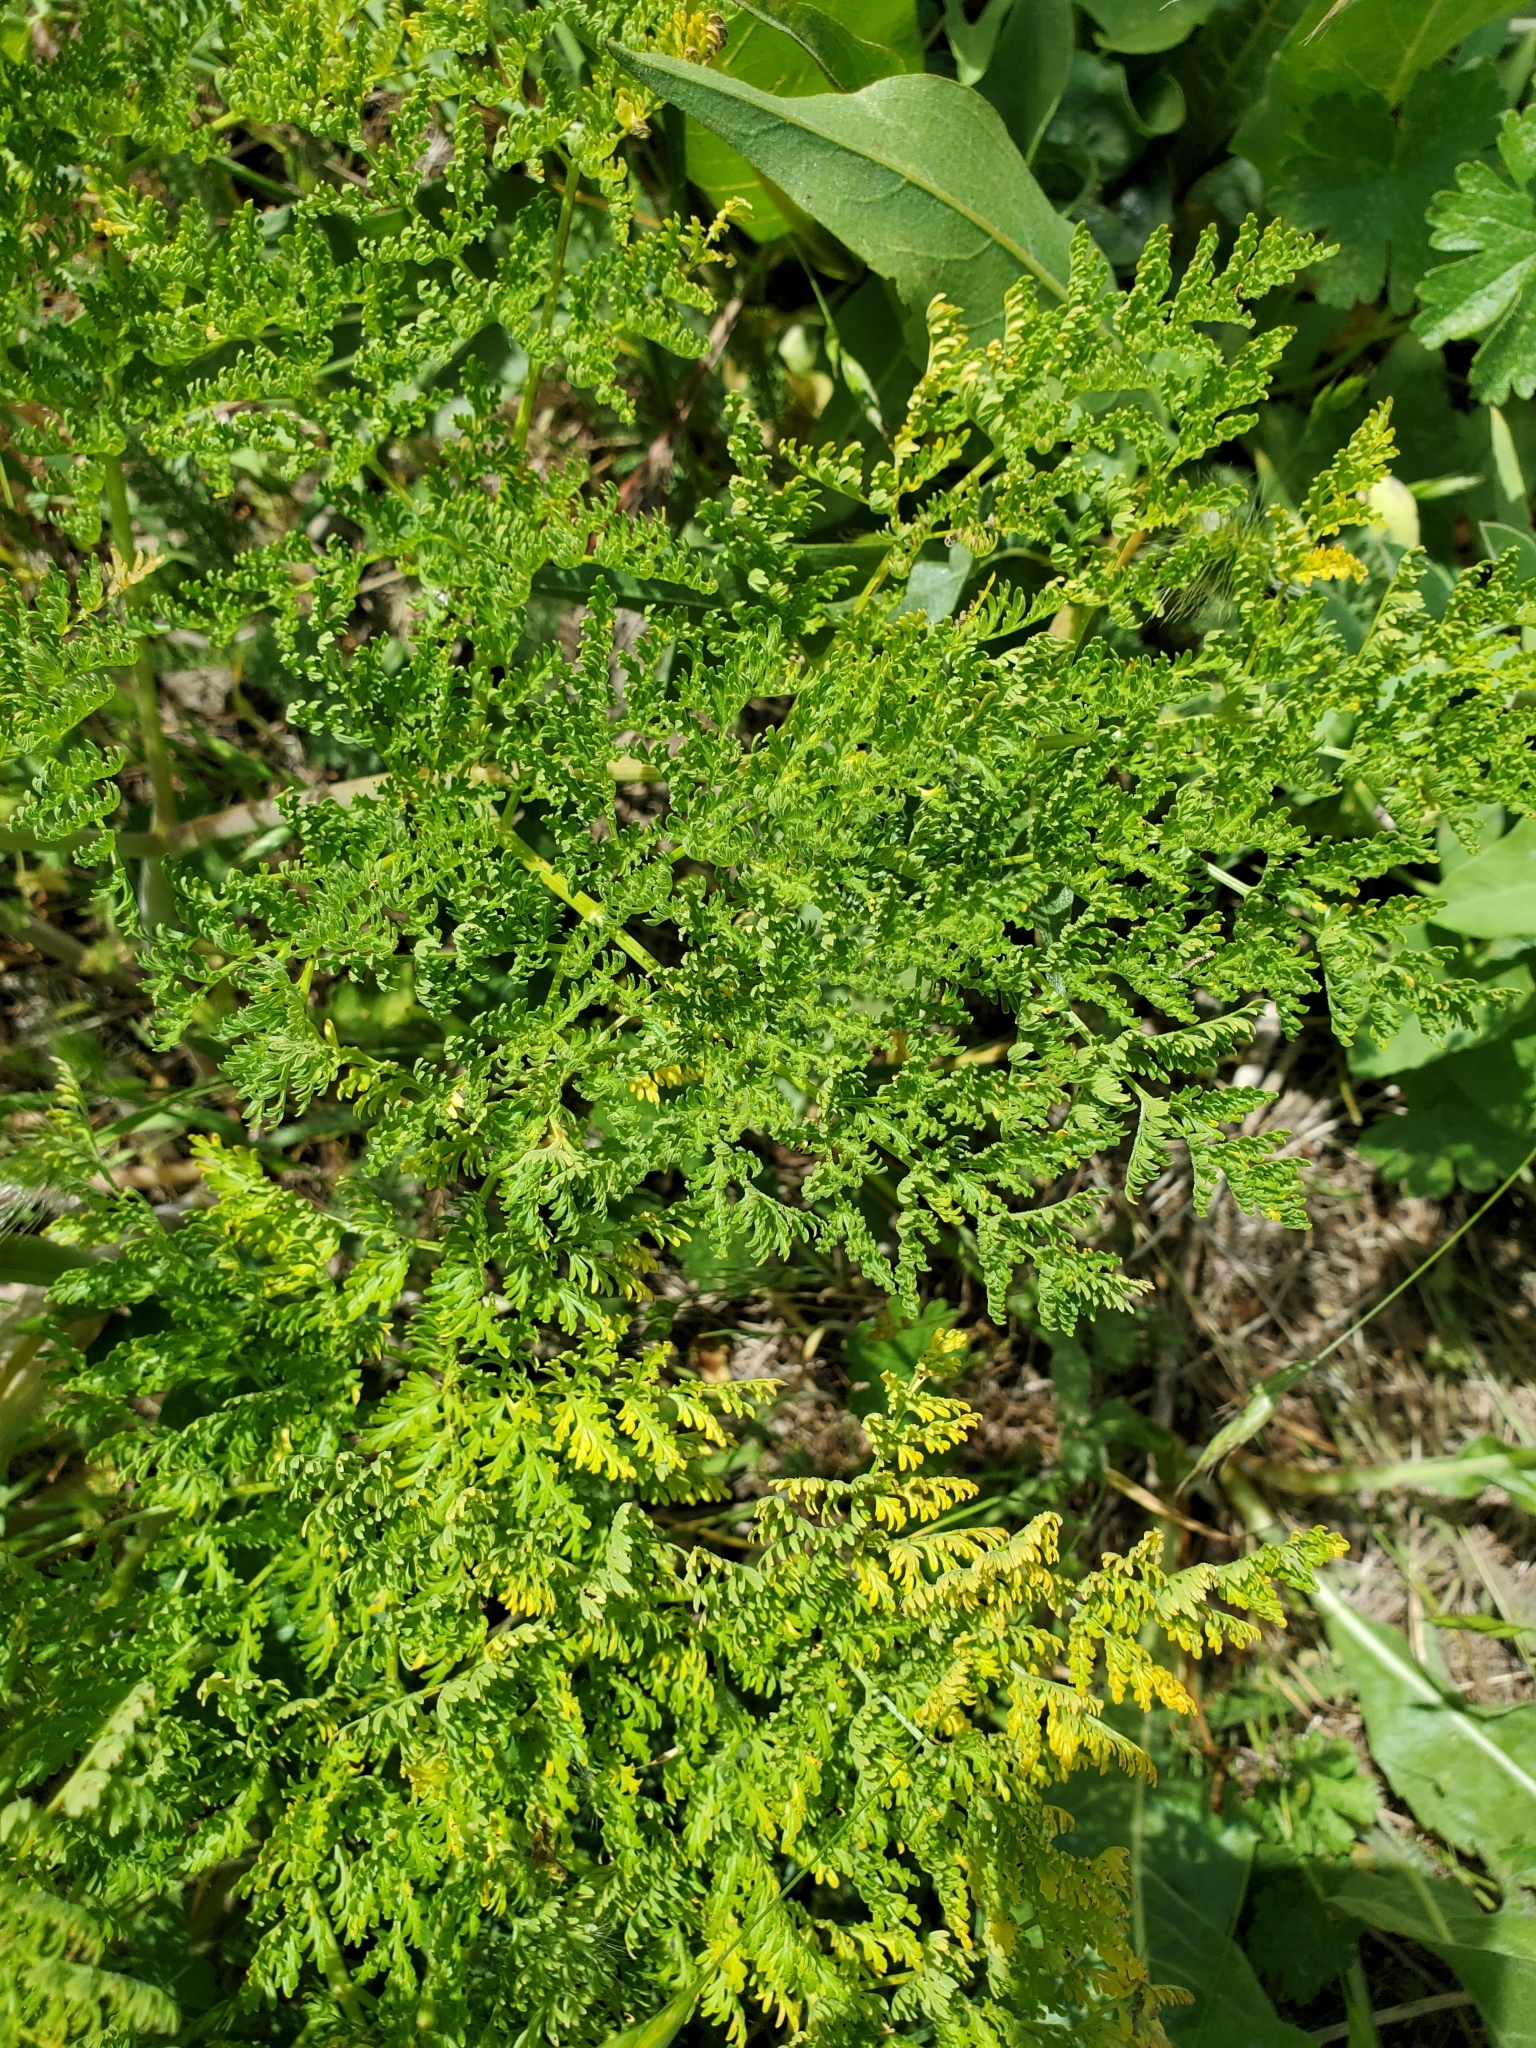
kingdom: Plantae
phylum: Tracheophyta
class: Magnoliopsida
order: Apiales
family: Apiaceae
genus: Lomatium
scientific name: Lomatium dissectum
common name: Lomatium
